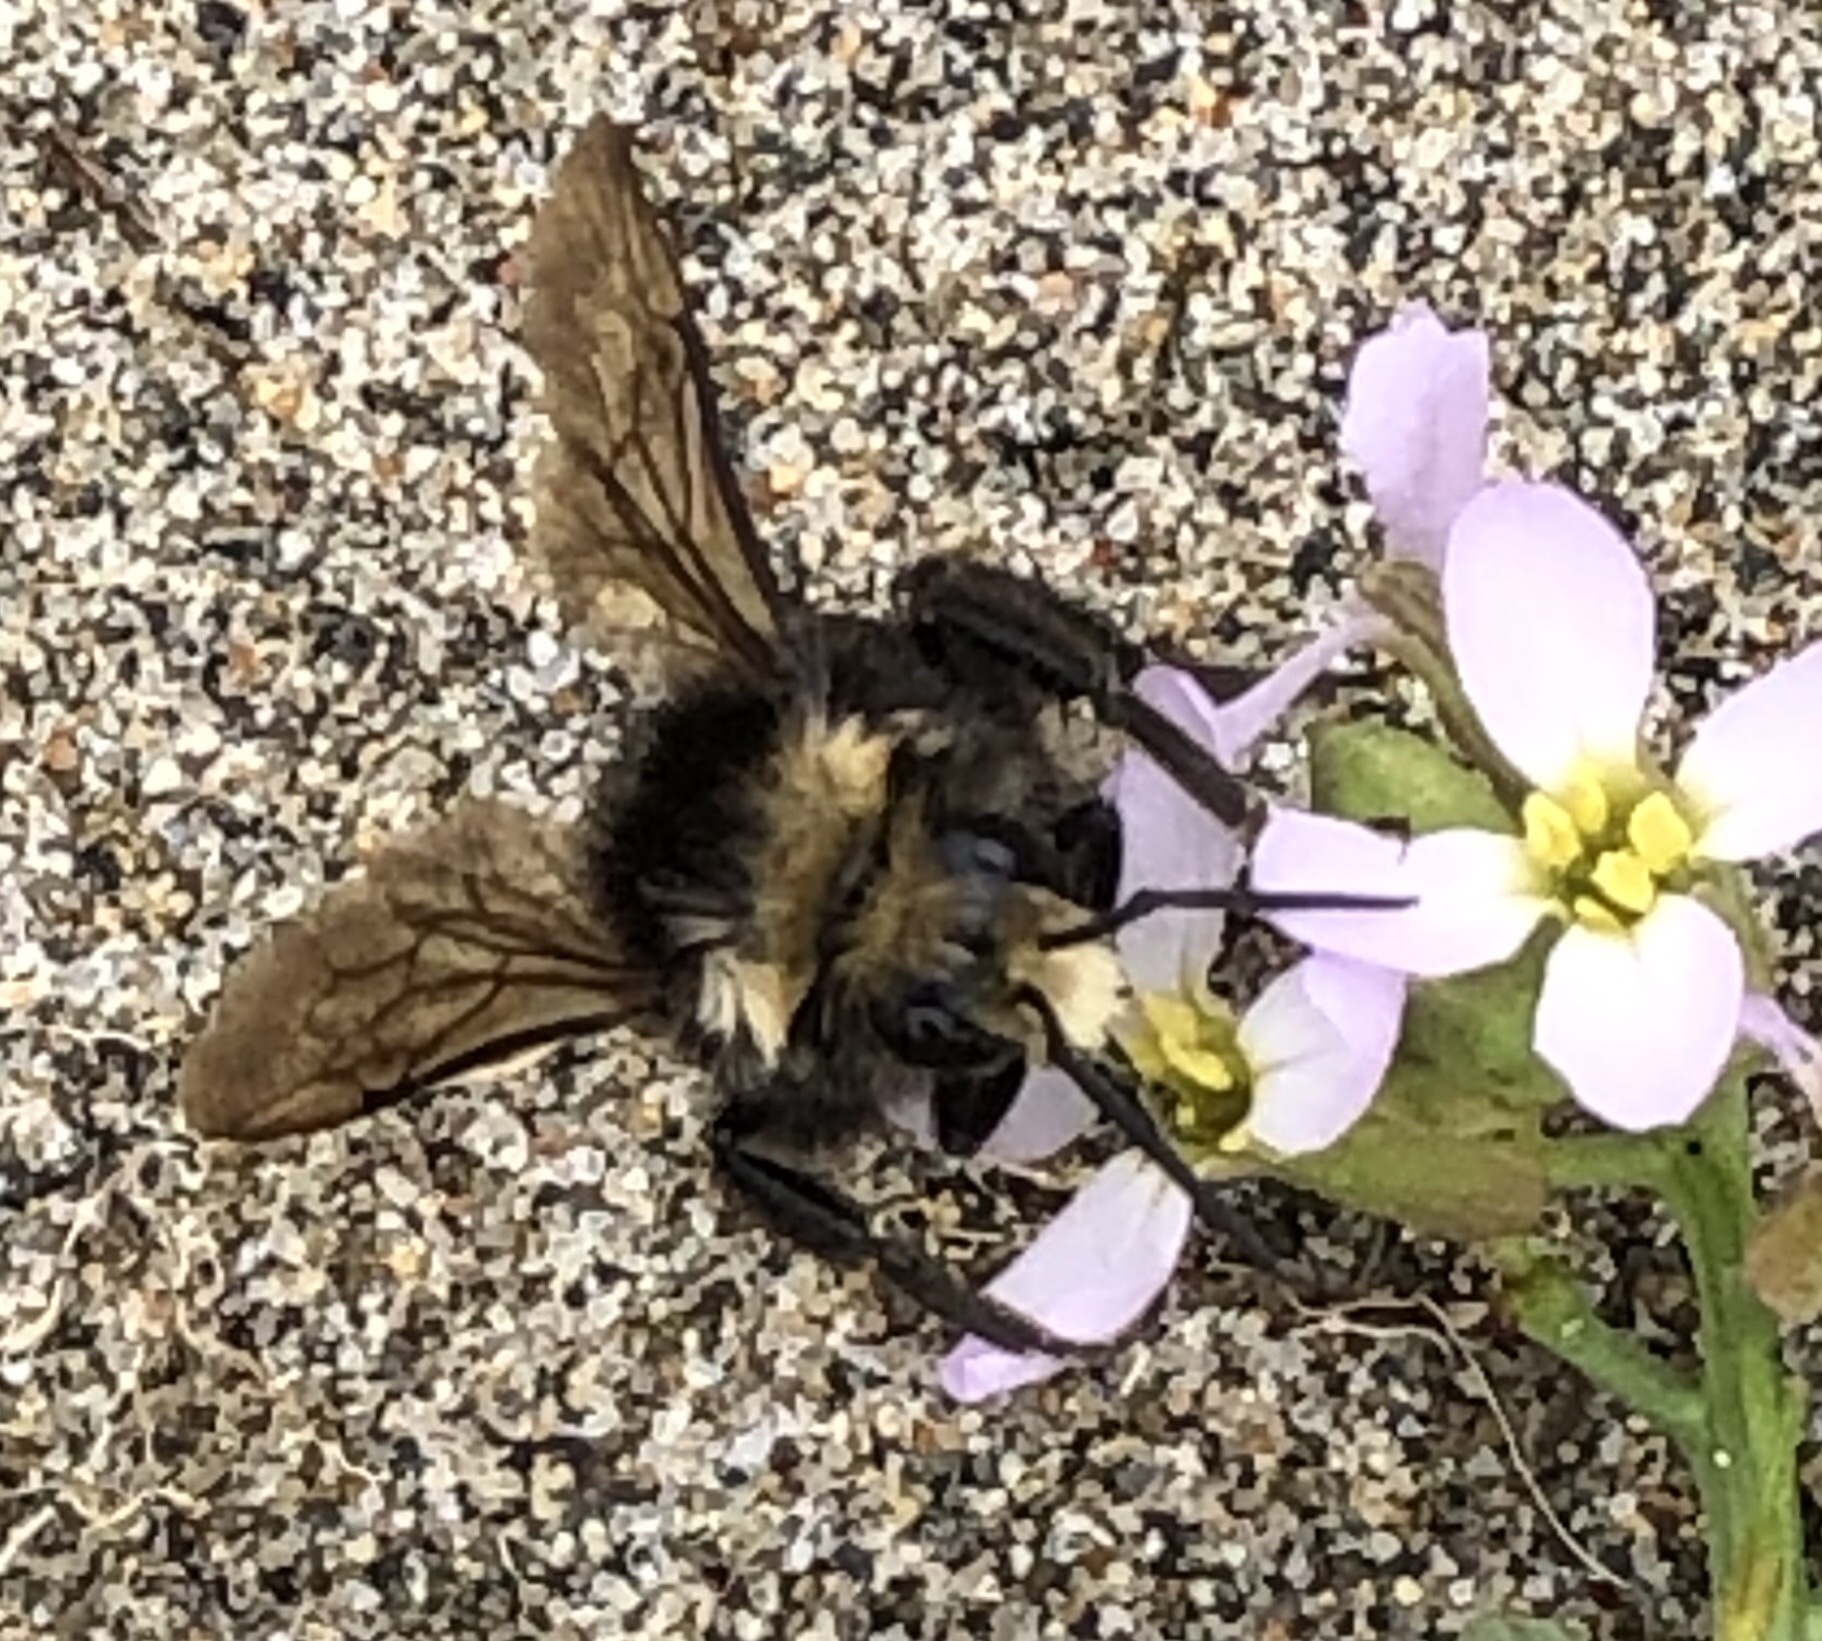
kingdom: Animalia
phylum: Arthropoda
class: Insecta
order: Hymenoptera
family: Apidae
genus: Bombus
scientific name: Bombus vosnesenskii
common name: Vosnesensky bumble bee
